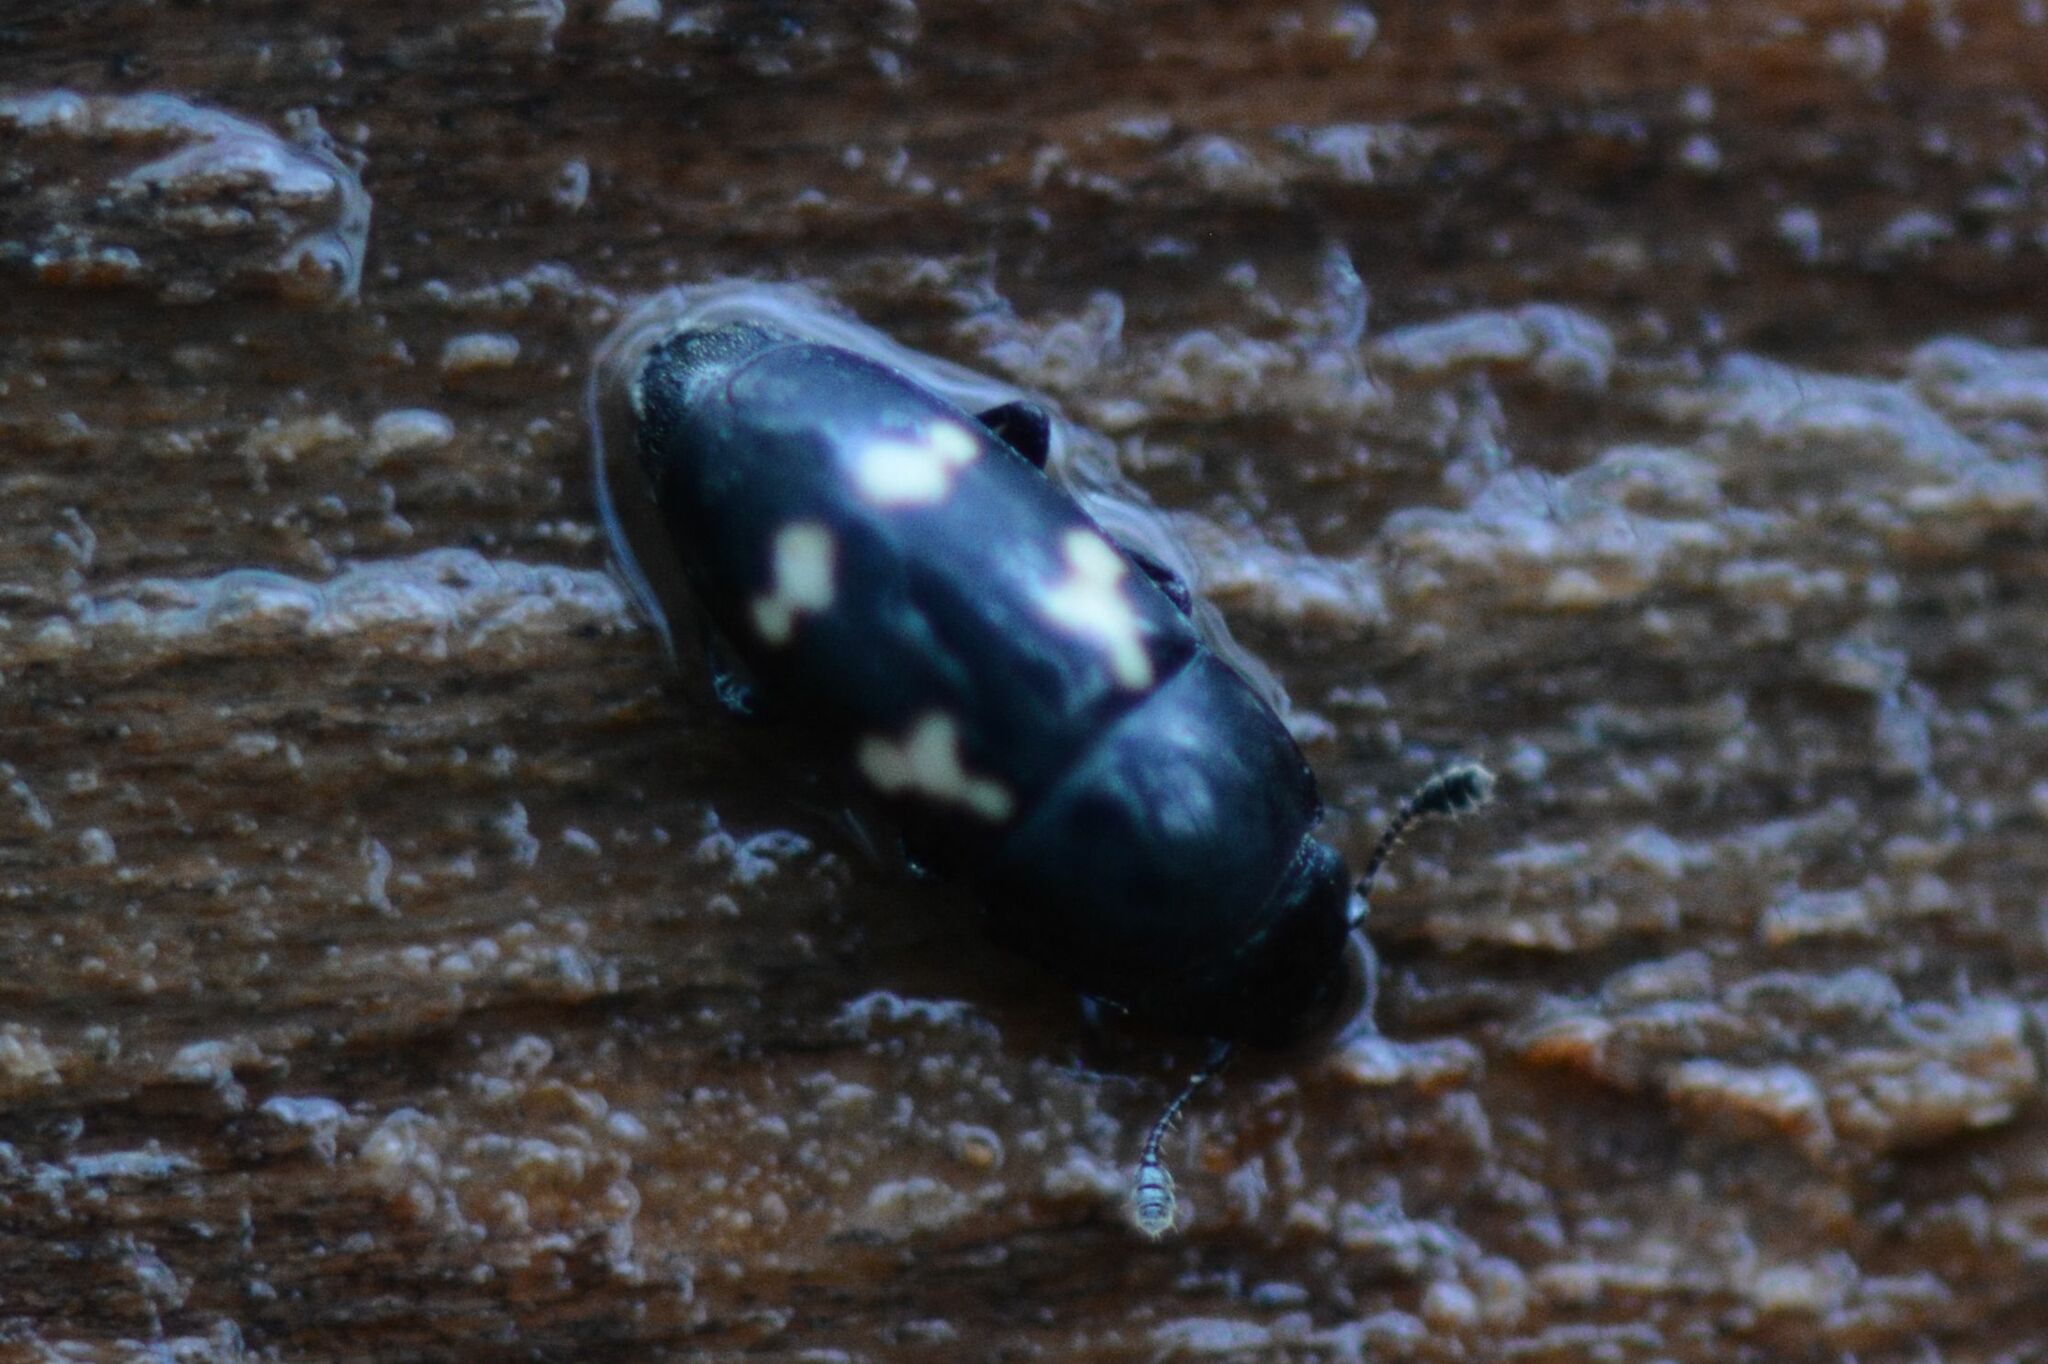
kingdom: Animalia
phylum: Arthropoda
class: Insecta
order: Coleoptera
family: Nitidulidae
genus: Glischrochilus
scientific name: Glischrochilus quadriguttatus
